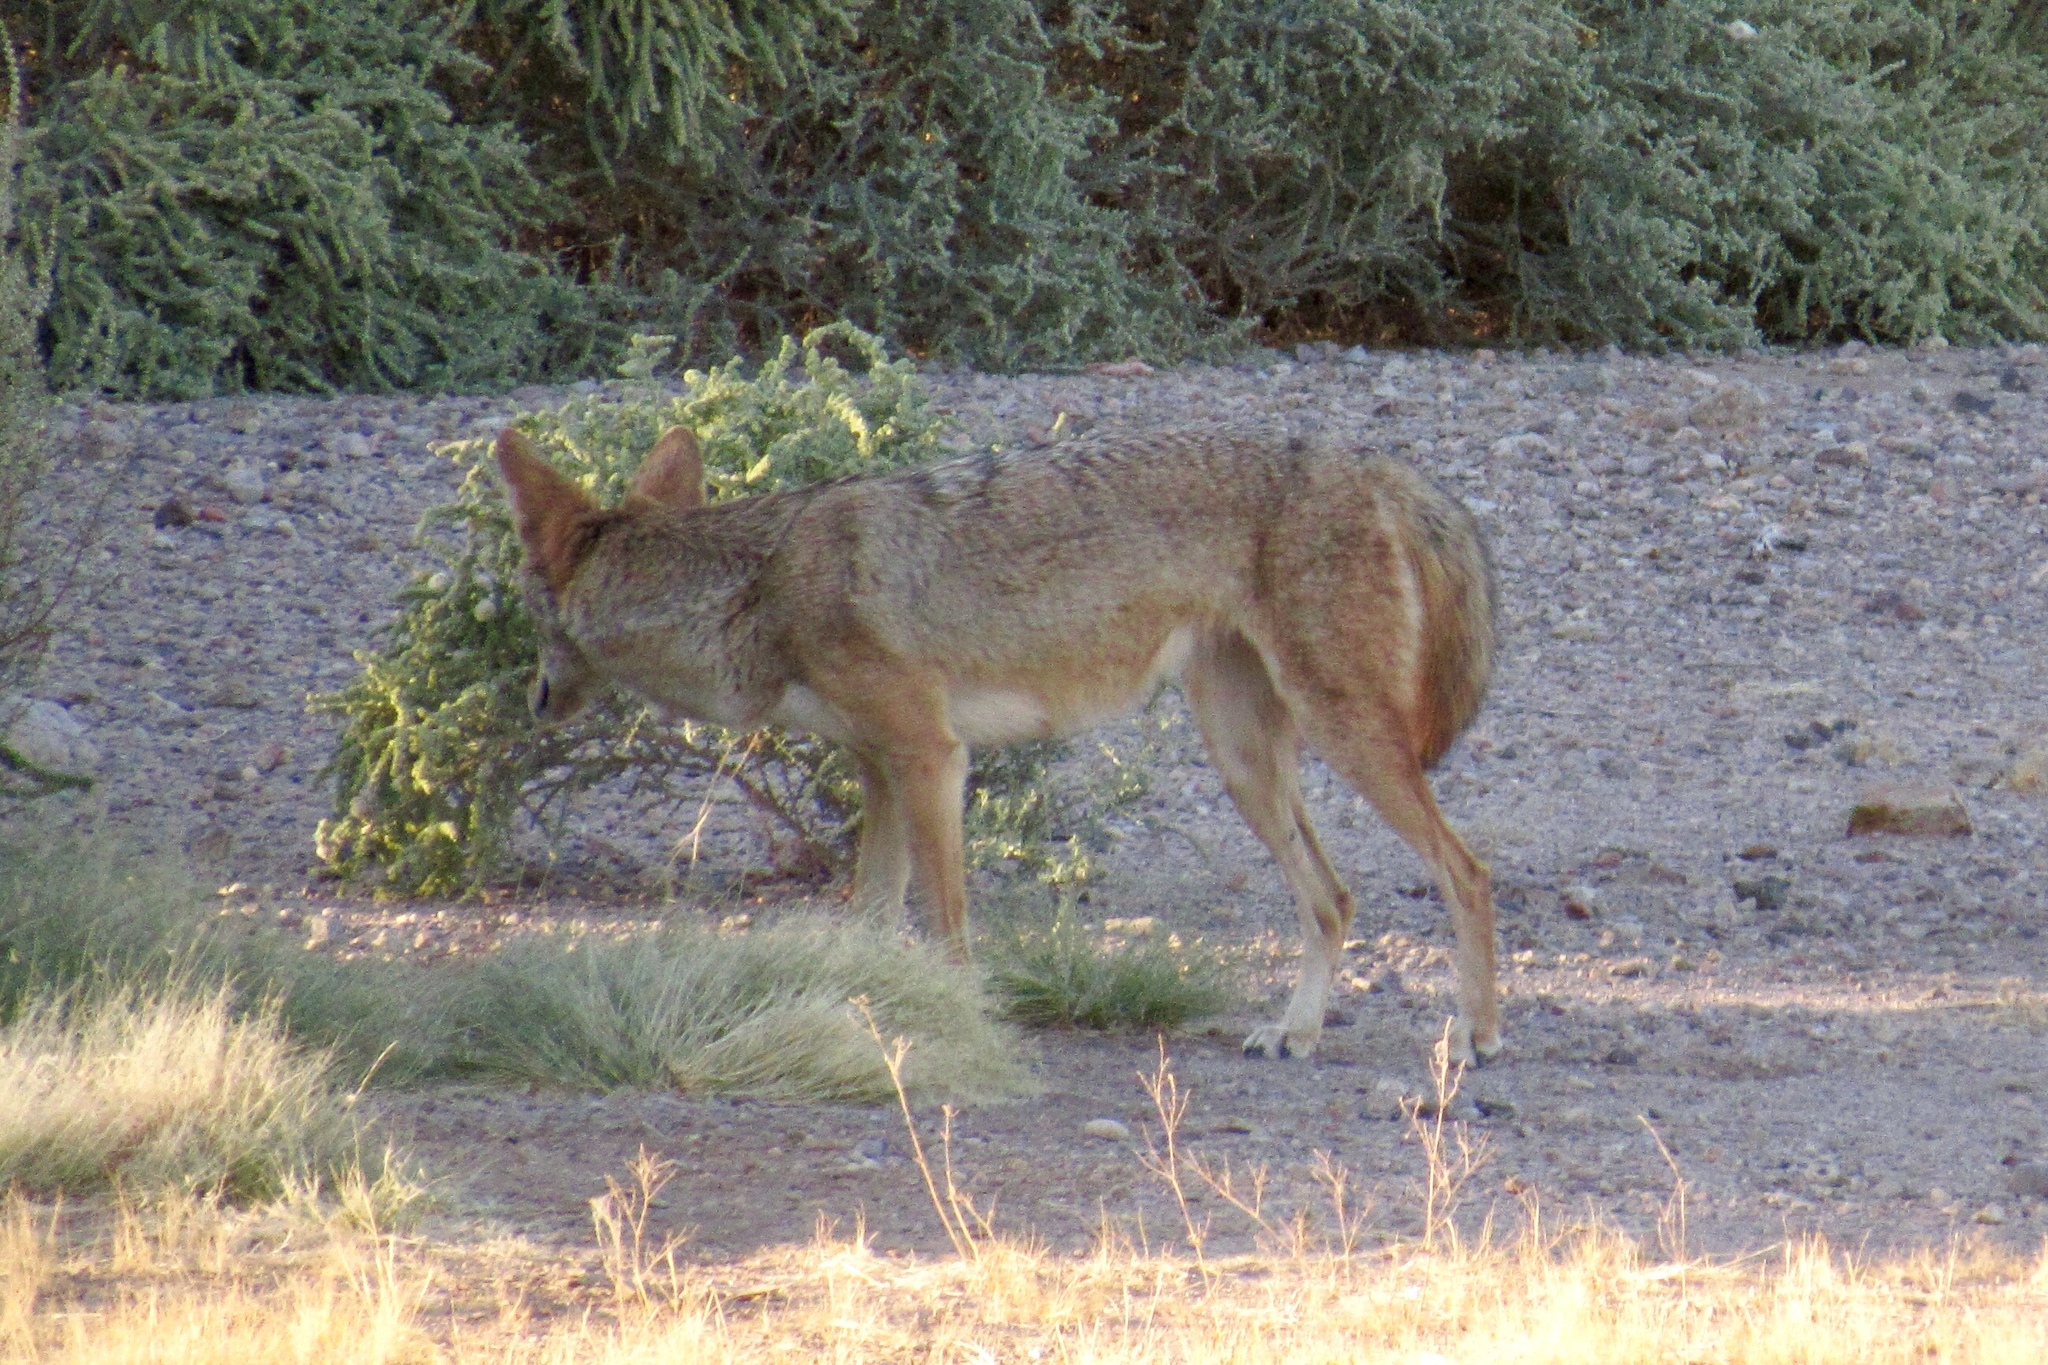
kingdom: Animalia
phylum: Chordata
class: Mammalia
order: Carnivora
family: Canidae
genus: Canis
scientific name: Canis latrans
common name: Coyote
